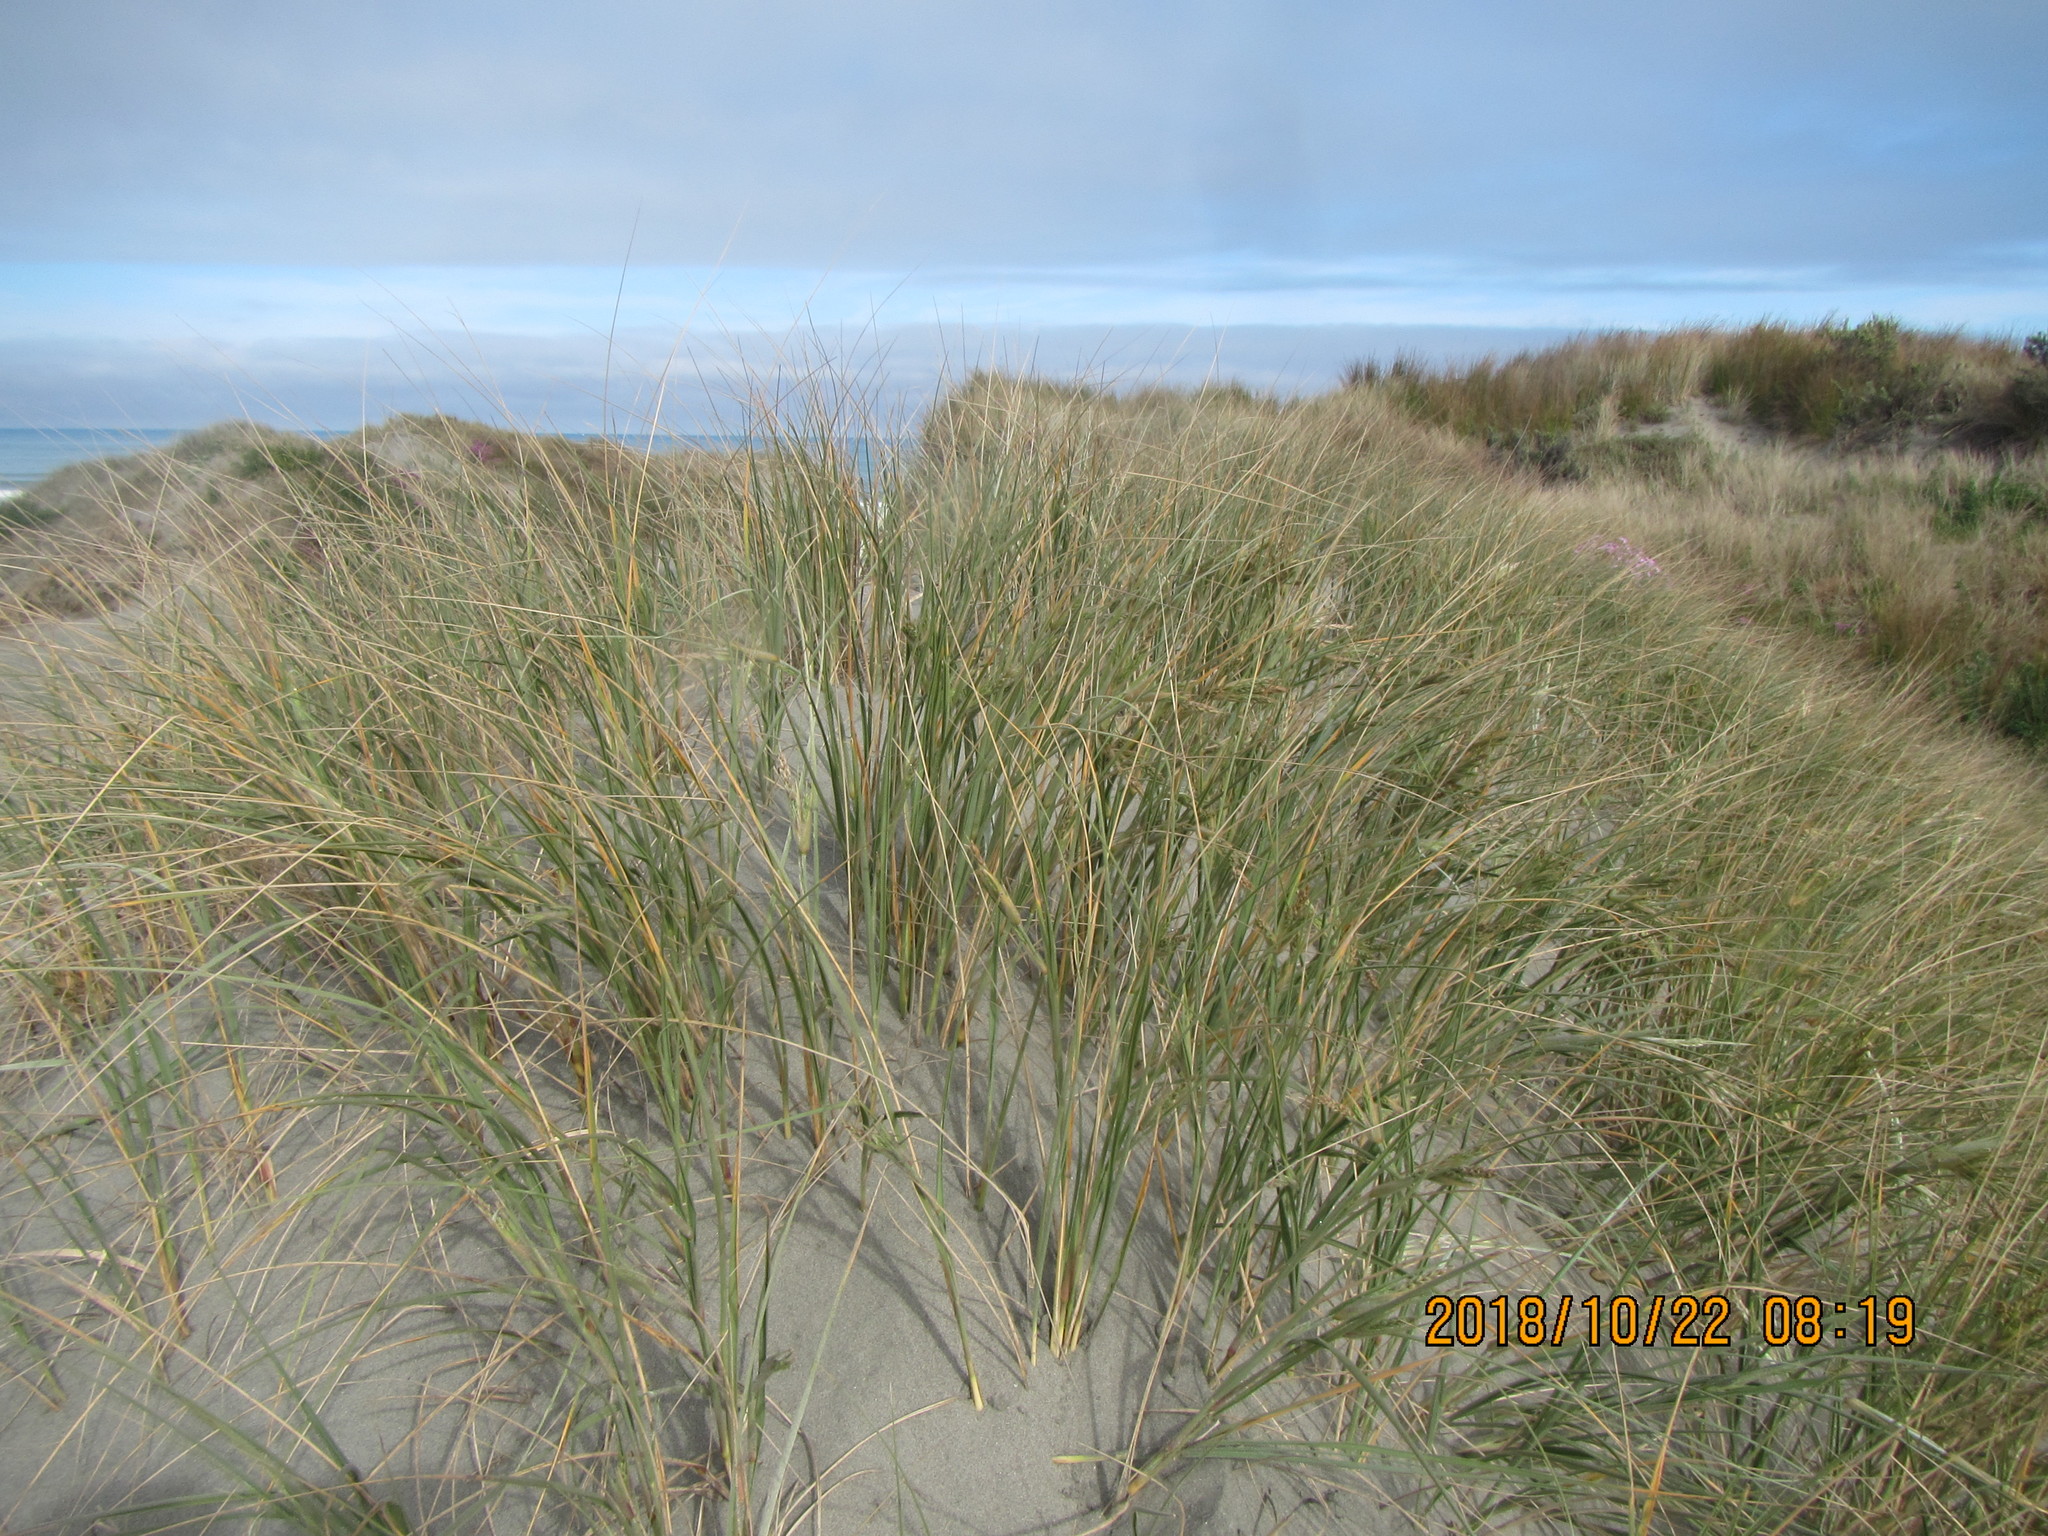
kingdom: Plantae
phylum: Tracheophyta
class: Liliopsida
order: Poales
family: Poaceae
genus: Spinifex
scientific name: Spinifex sericeus
